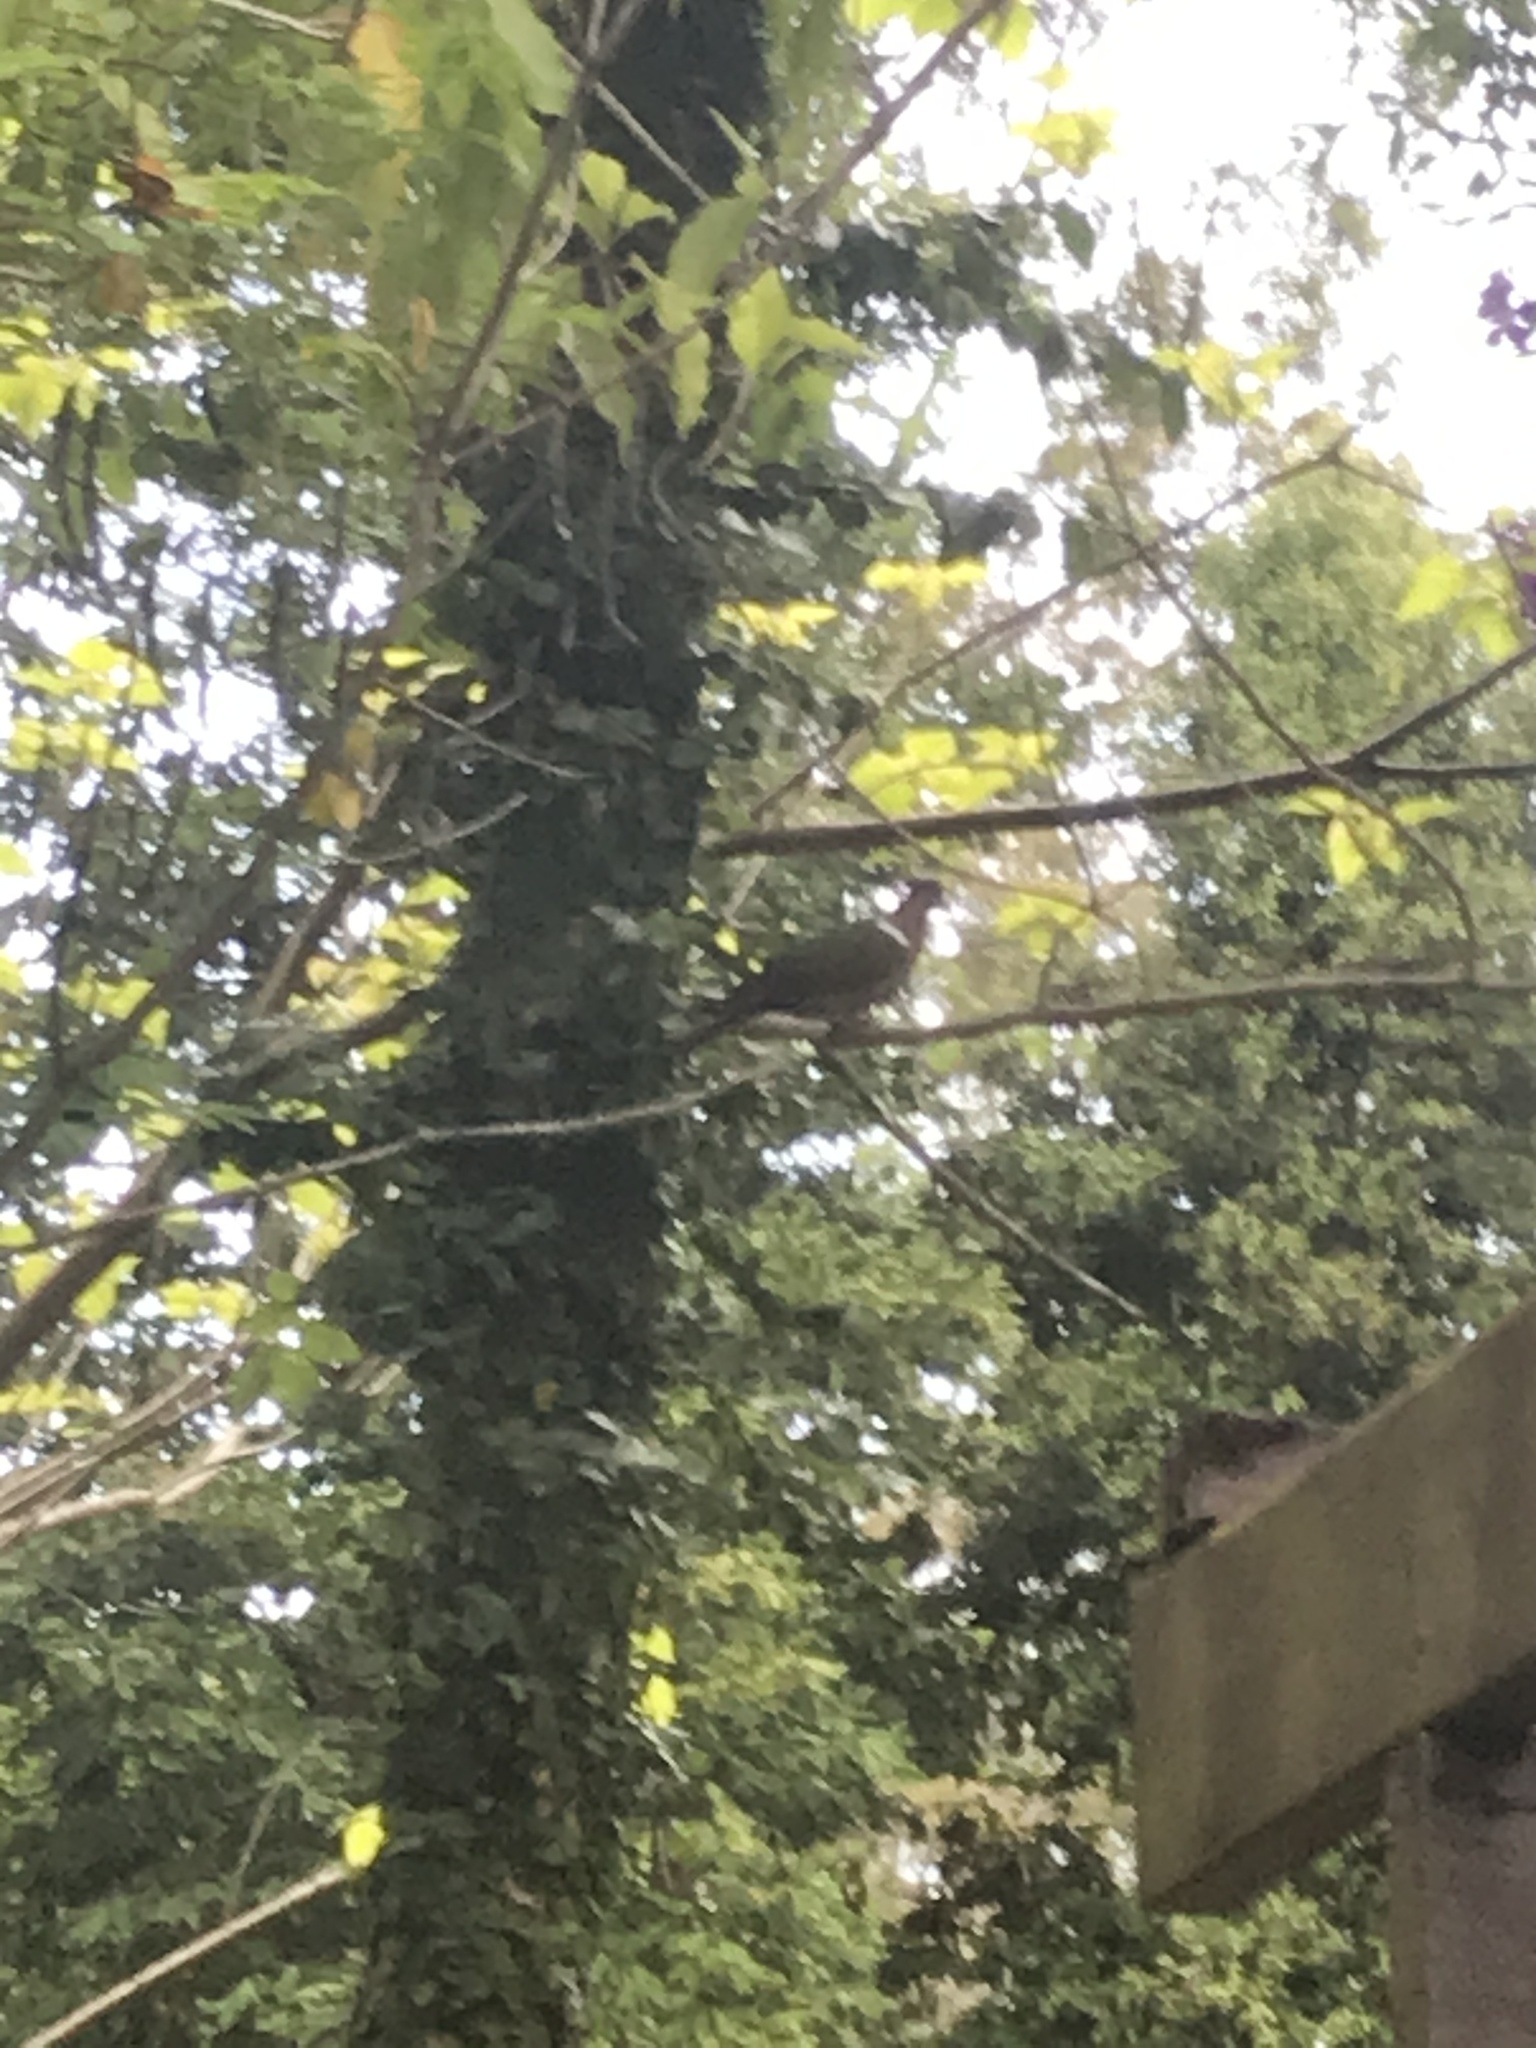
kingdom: Animalia
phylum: Chordata
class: Aves
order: Columbiformes
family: Columbidae
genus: Chalcophaps
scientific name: Chalcophaps longirostris
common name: Pacific emerald dove
